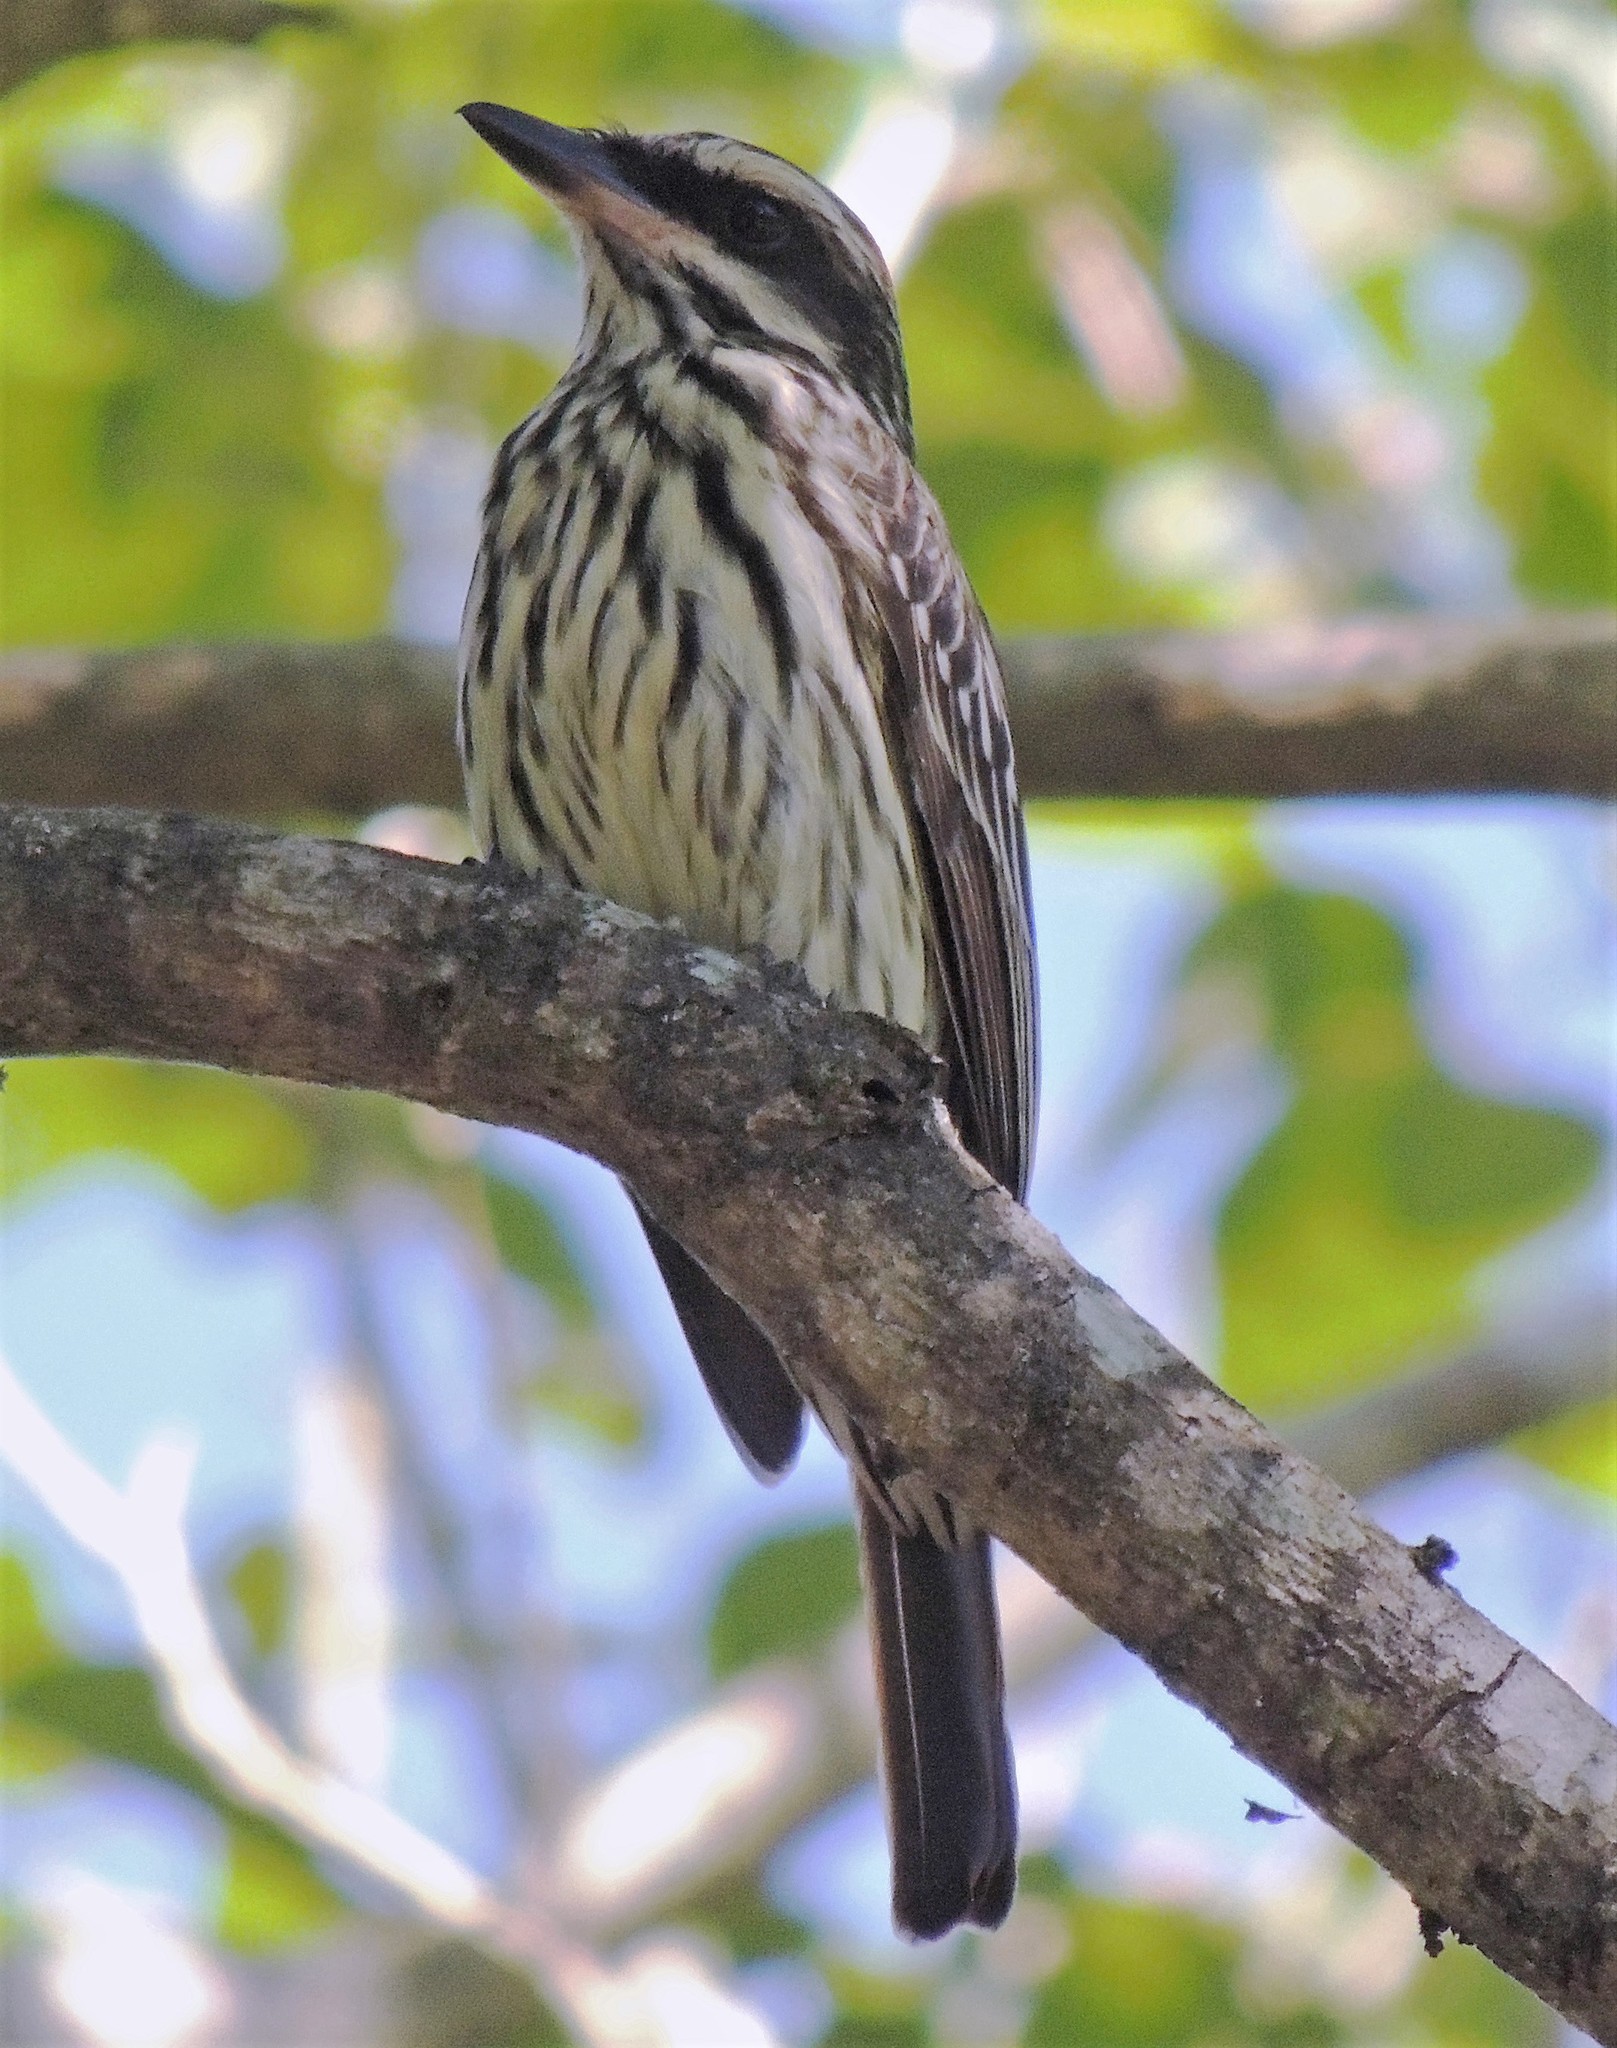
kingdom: Animalia
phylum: Chordata
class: Aves
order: Passeriformes
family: Tyrannidae
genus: Myiodynastes
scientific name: Myiodynastes maculatus
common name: Streaked flycatcher
